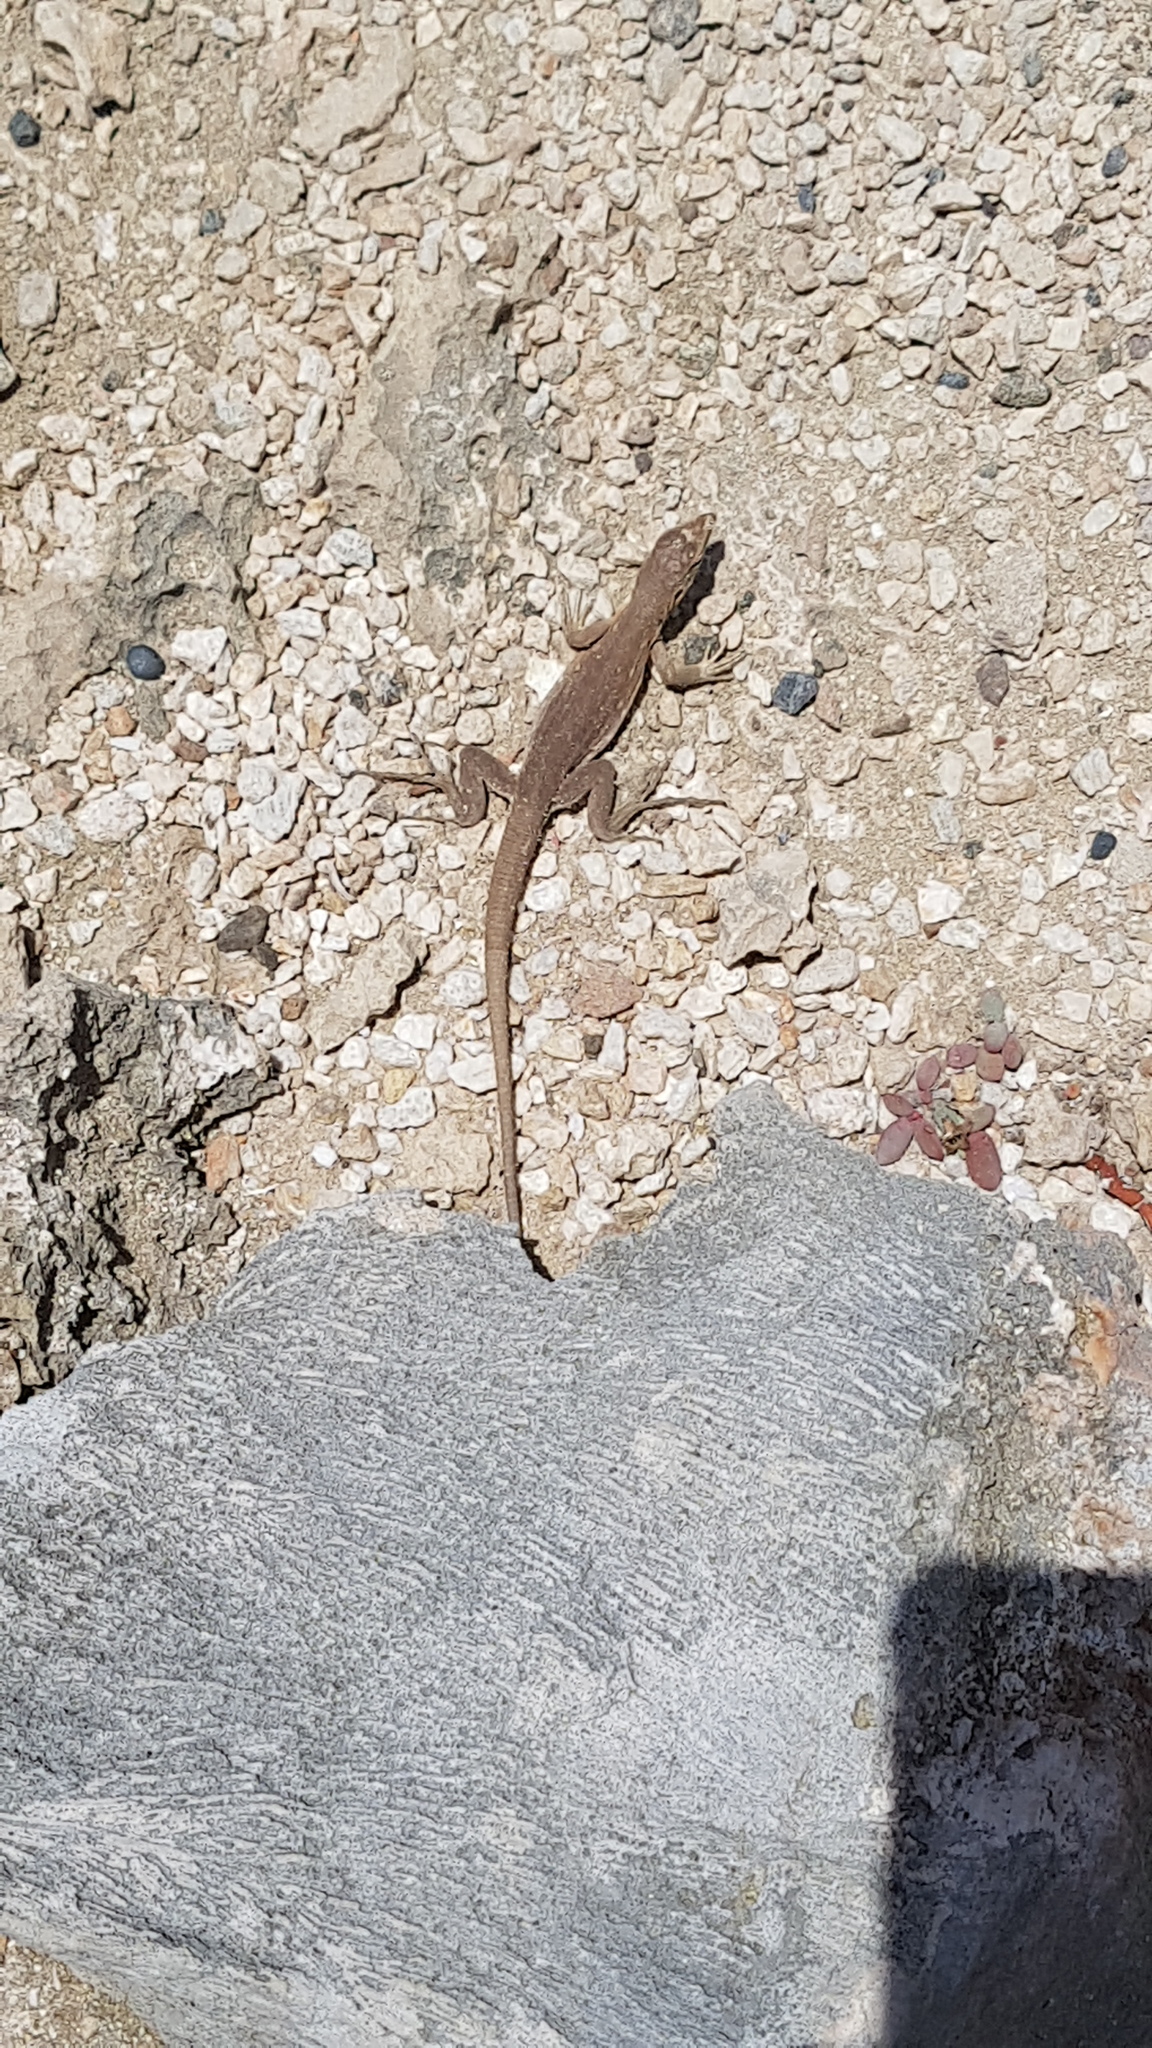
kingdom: Animalia
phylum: Chordata
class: Squamata
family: Teiidae
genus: Cnemidophorus
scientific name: Cnemidophorus murinus
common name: Laurent's whiptail
